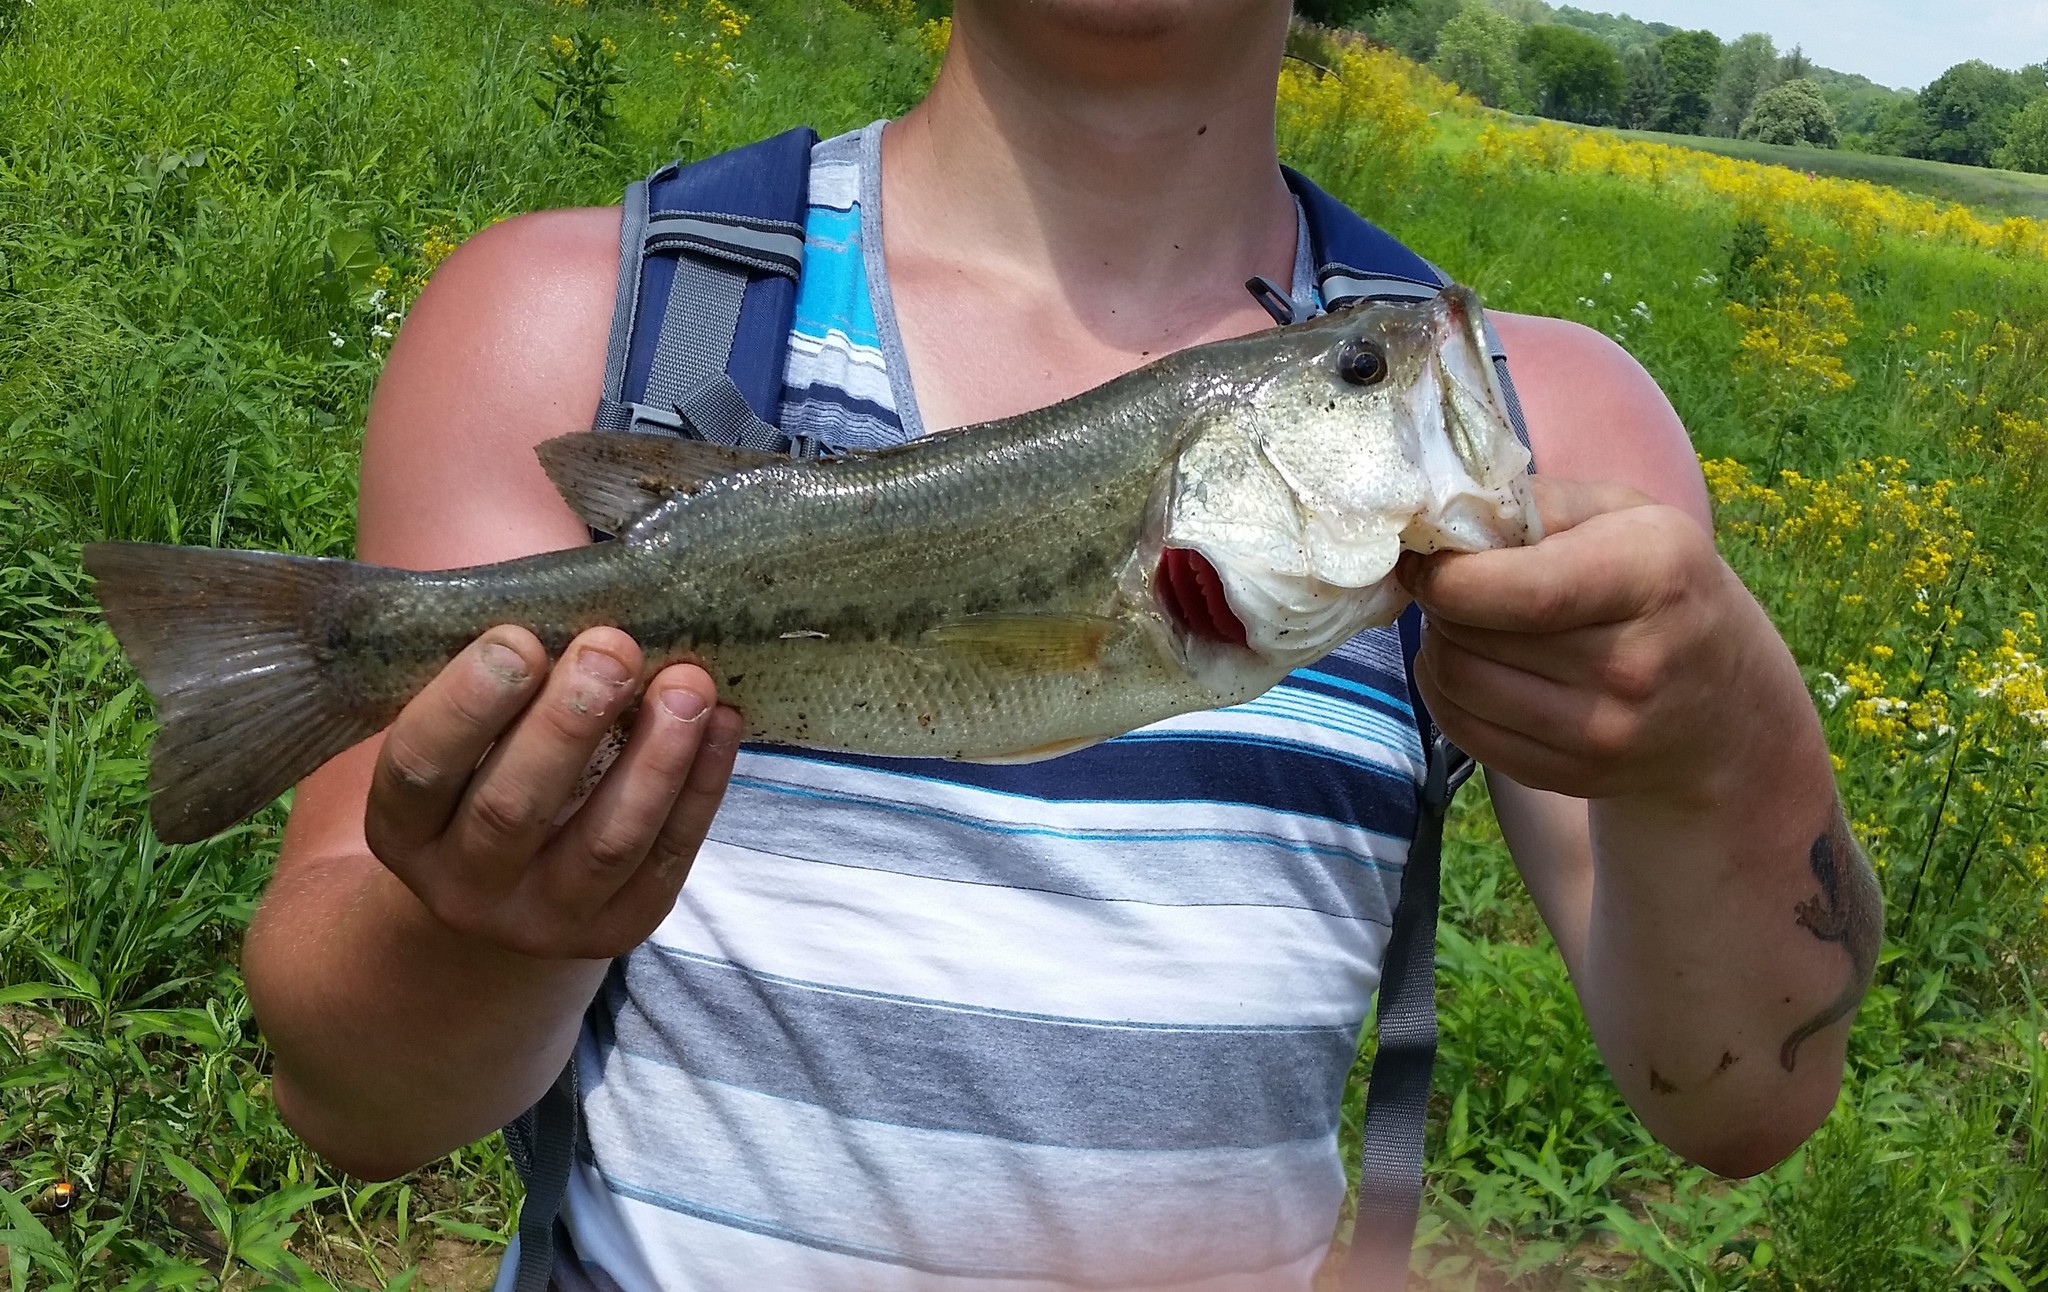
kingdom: Animalia
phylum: Chordata
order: Perciformes
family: Centrarchidae
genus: Micropterus
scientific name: Micropterus
